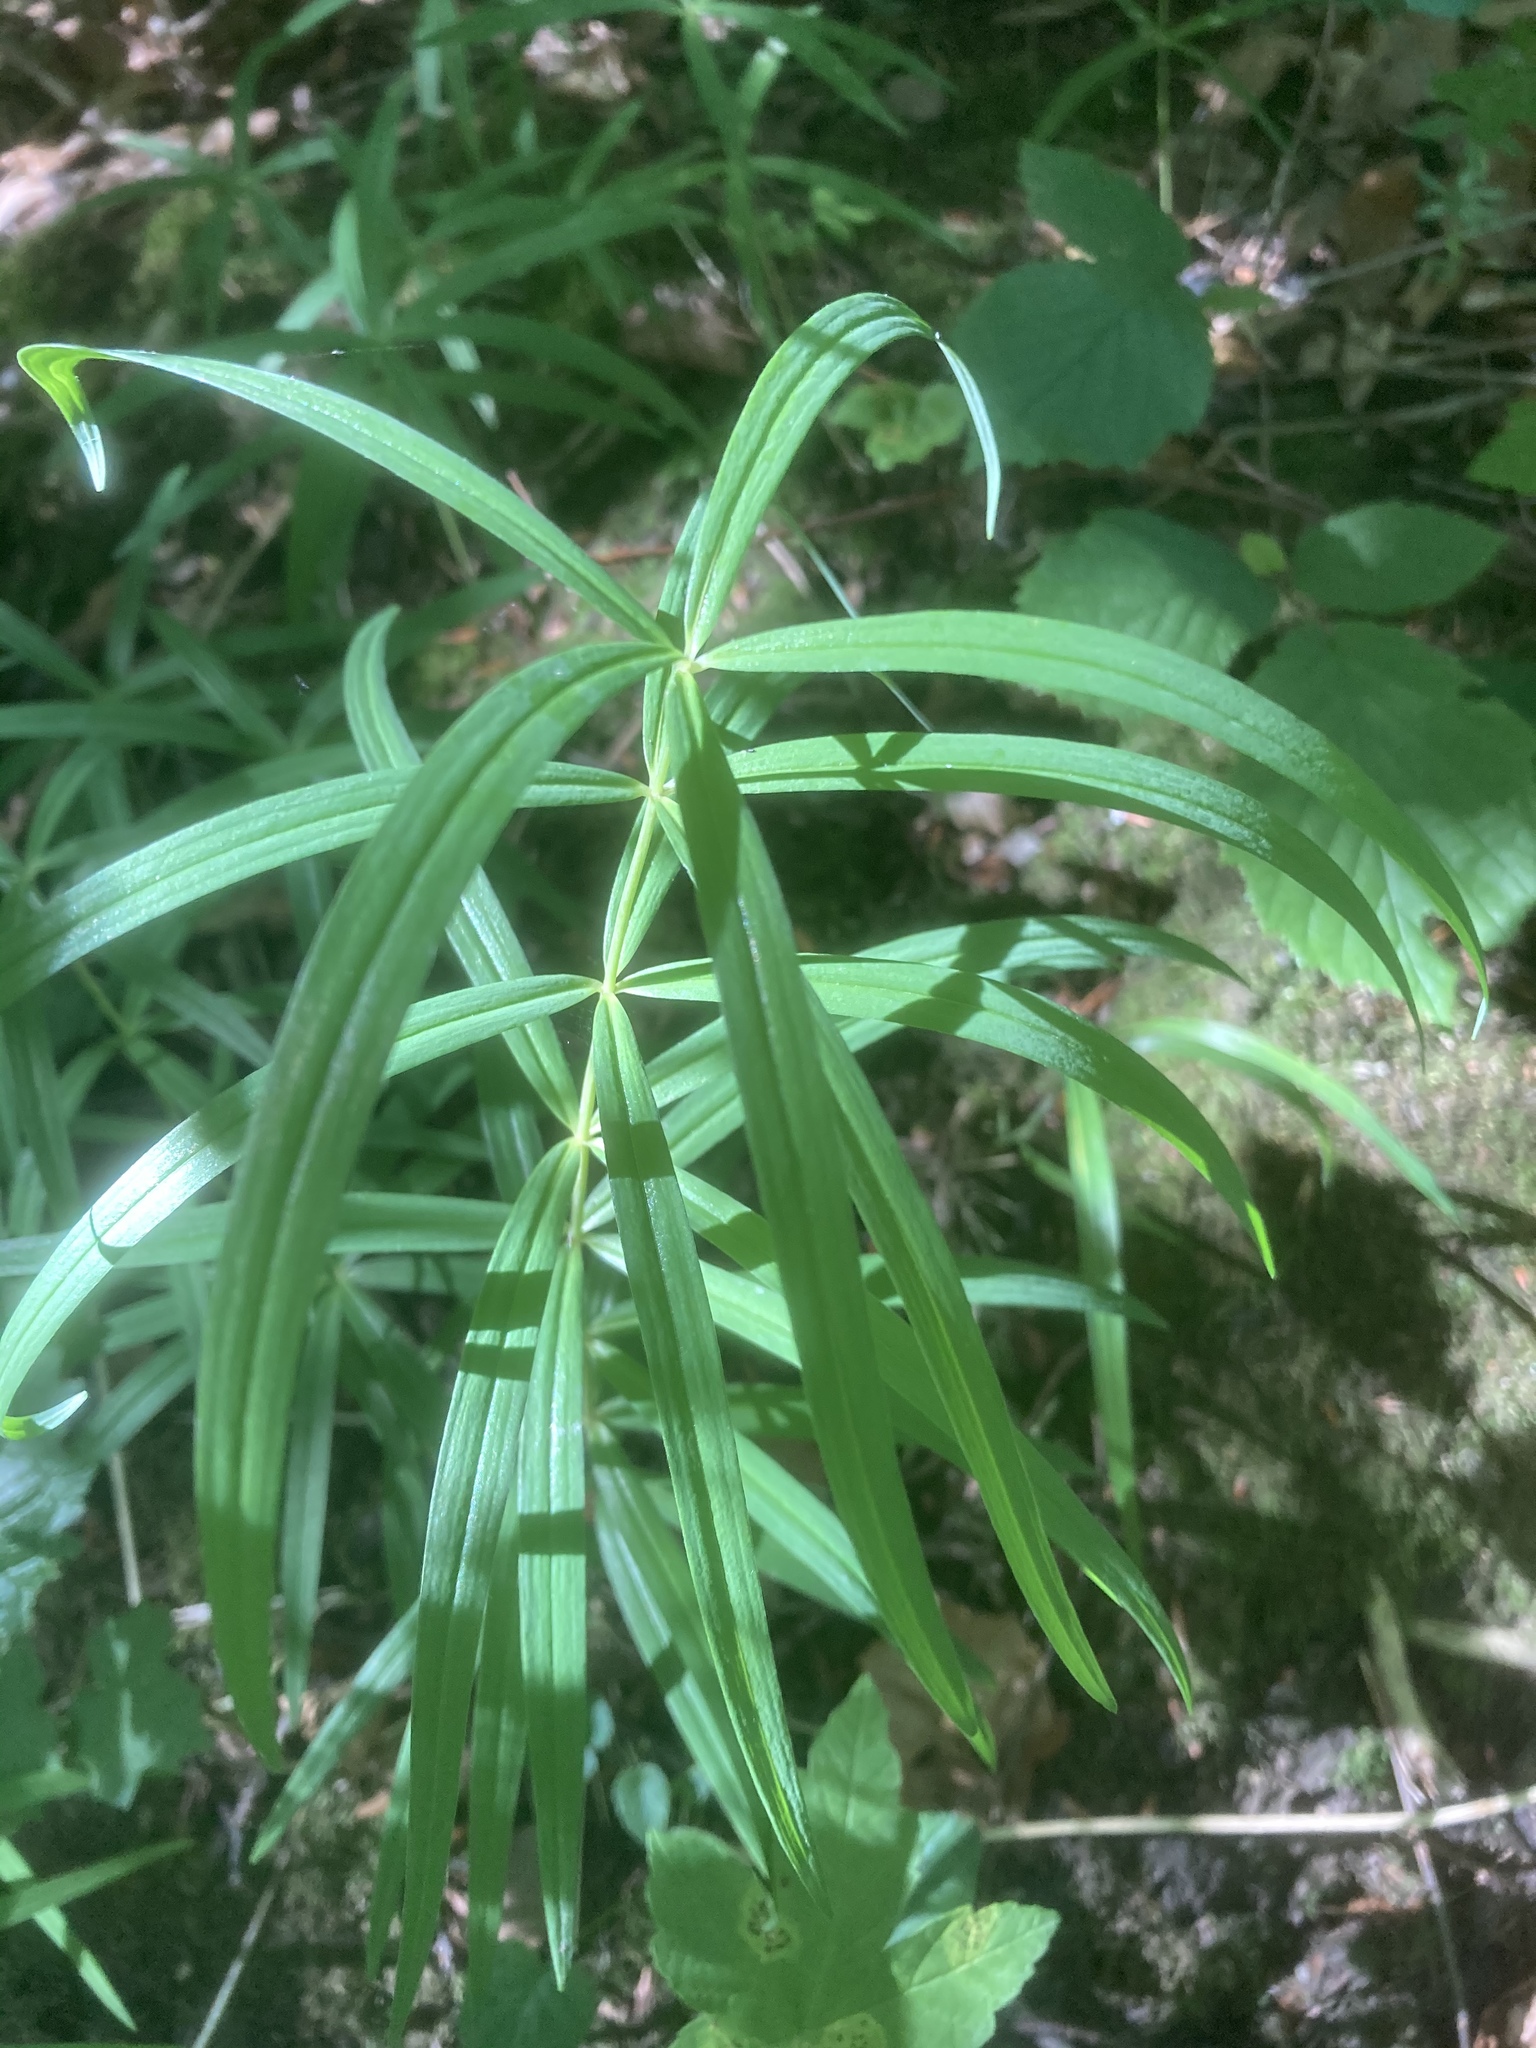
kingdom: Plantae
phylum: Tracheophyta
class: Liliopsida
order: Asparagales
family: Asparagaceae
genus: Polygonatum
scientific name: Polygonatum verticillatum
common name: Whorled solomon's-seal
